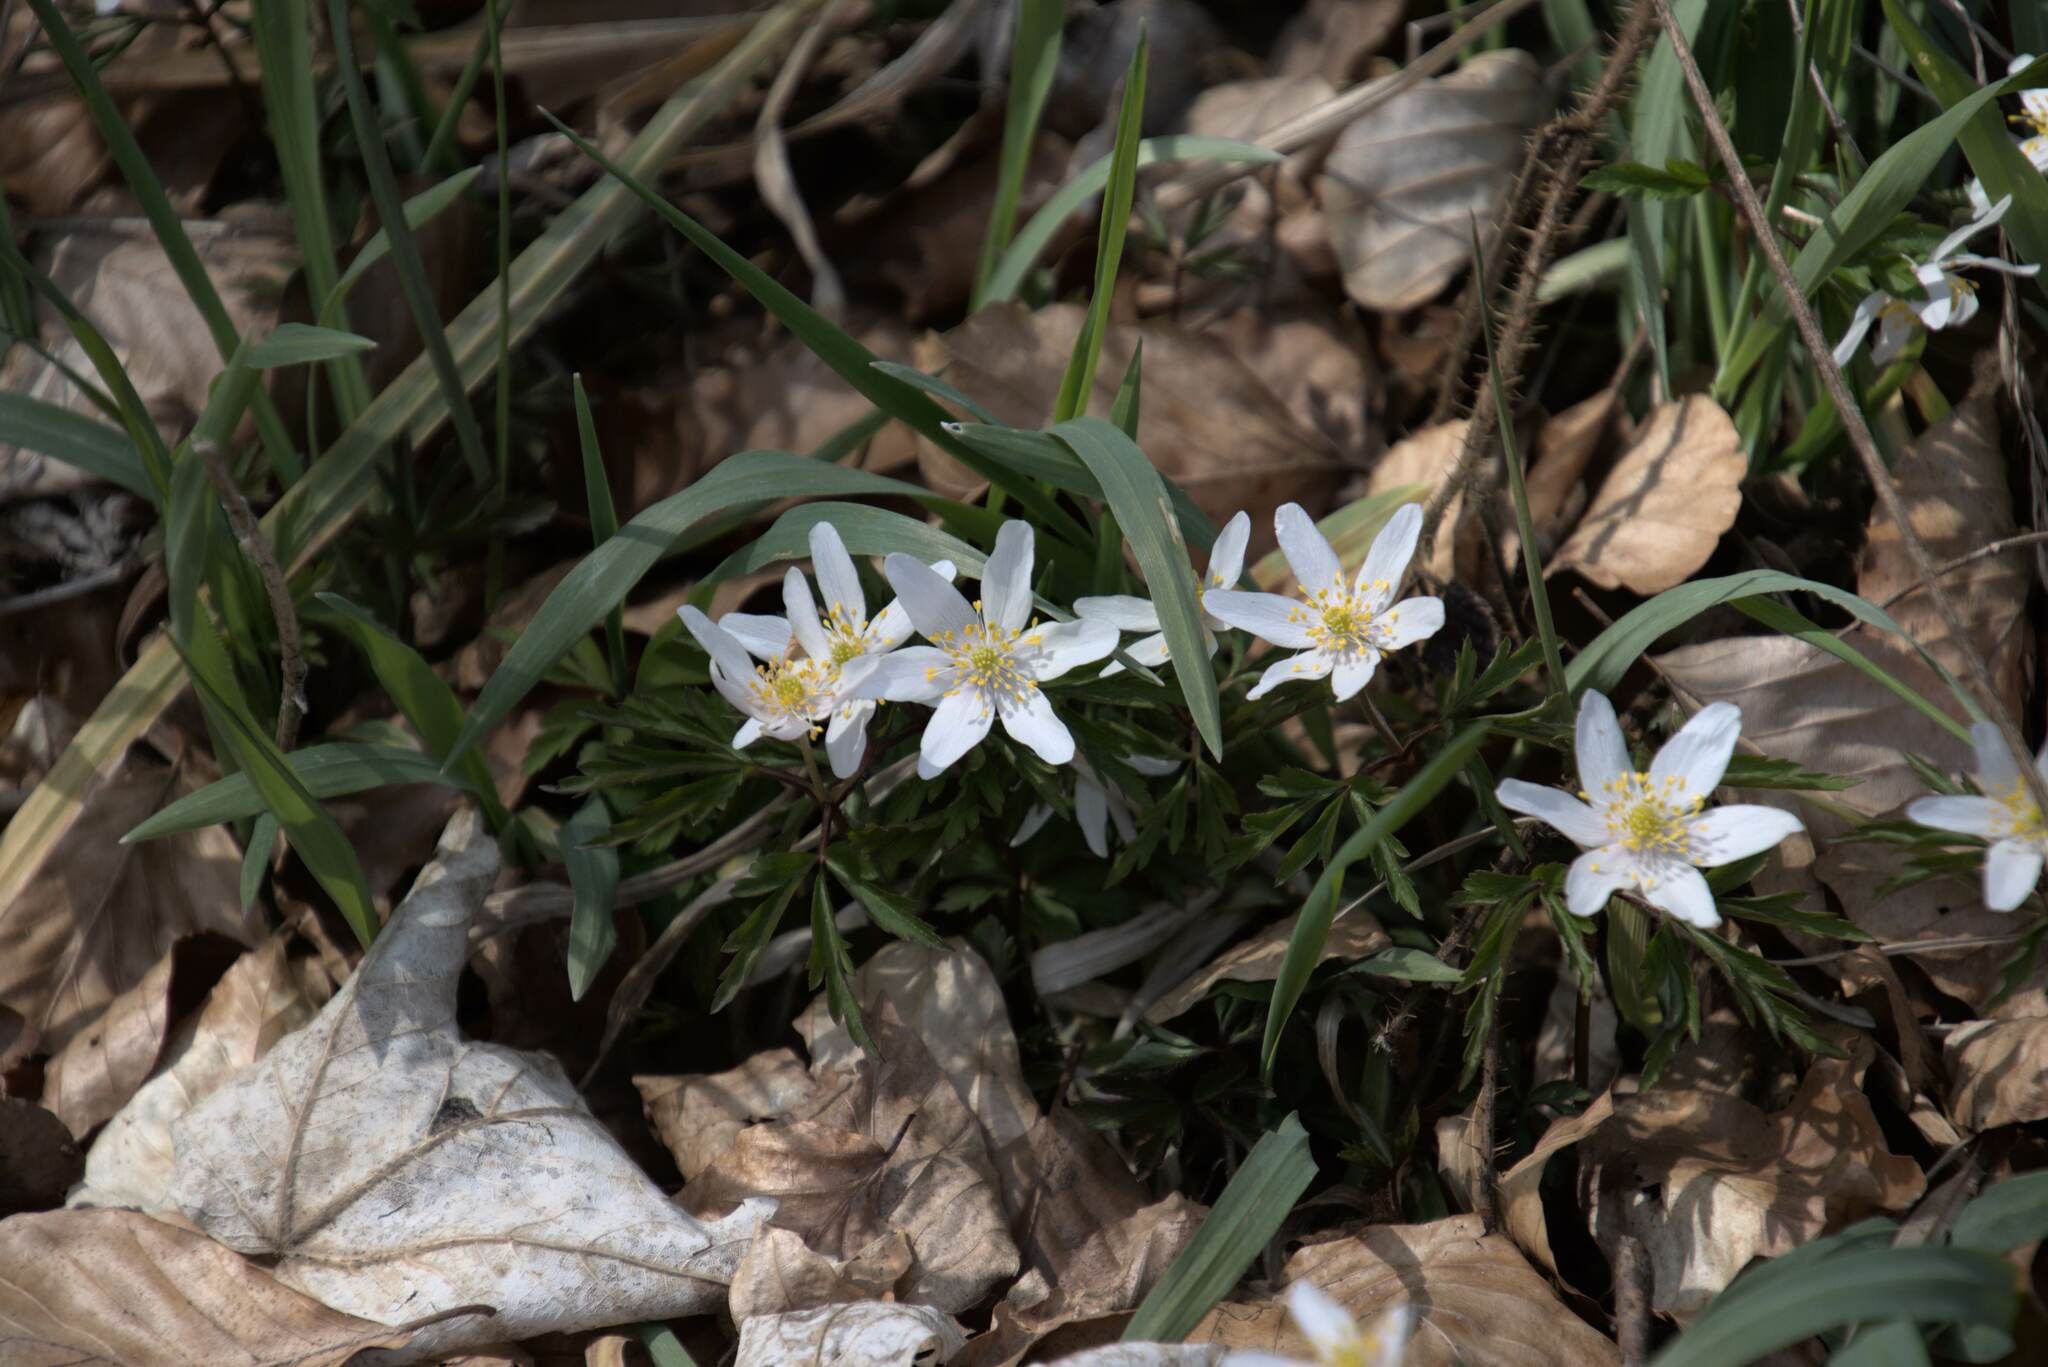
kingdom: Plantae
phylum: Tracheophyta
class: Magnoliopsida
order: Ranunculales
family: Ranunculaceae
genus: Anemone
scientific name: Anemone nemorosa
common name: Wood anemone
